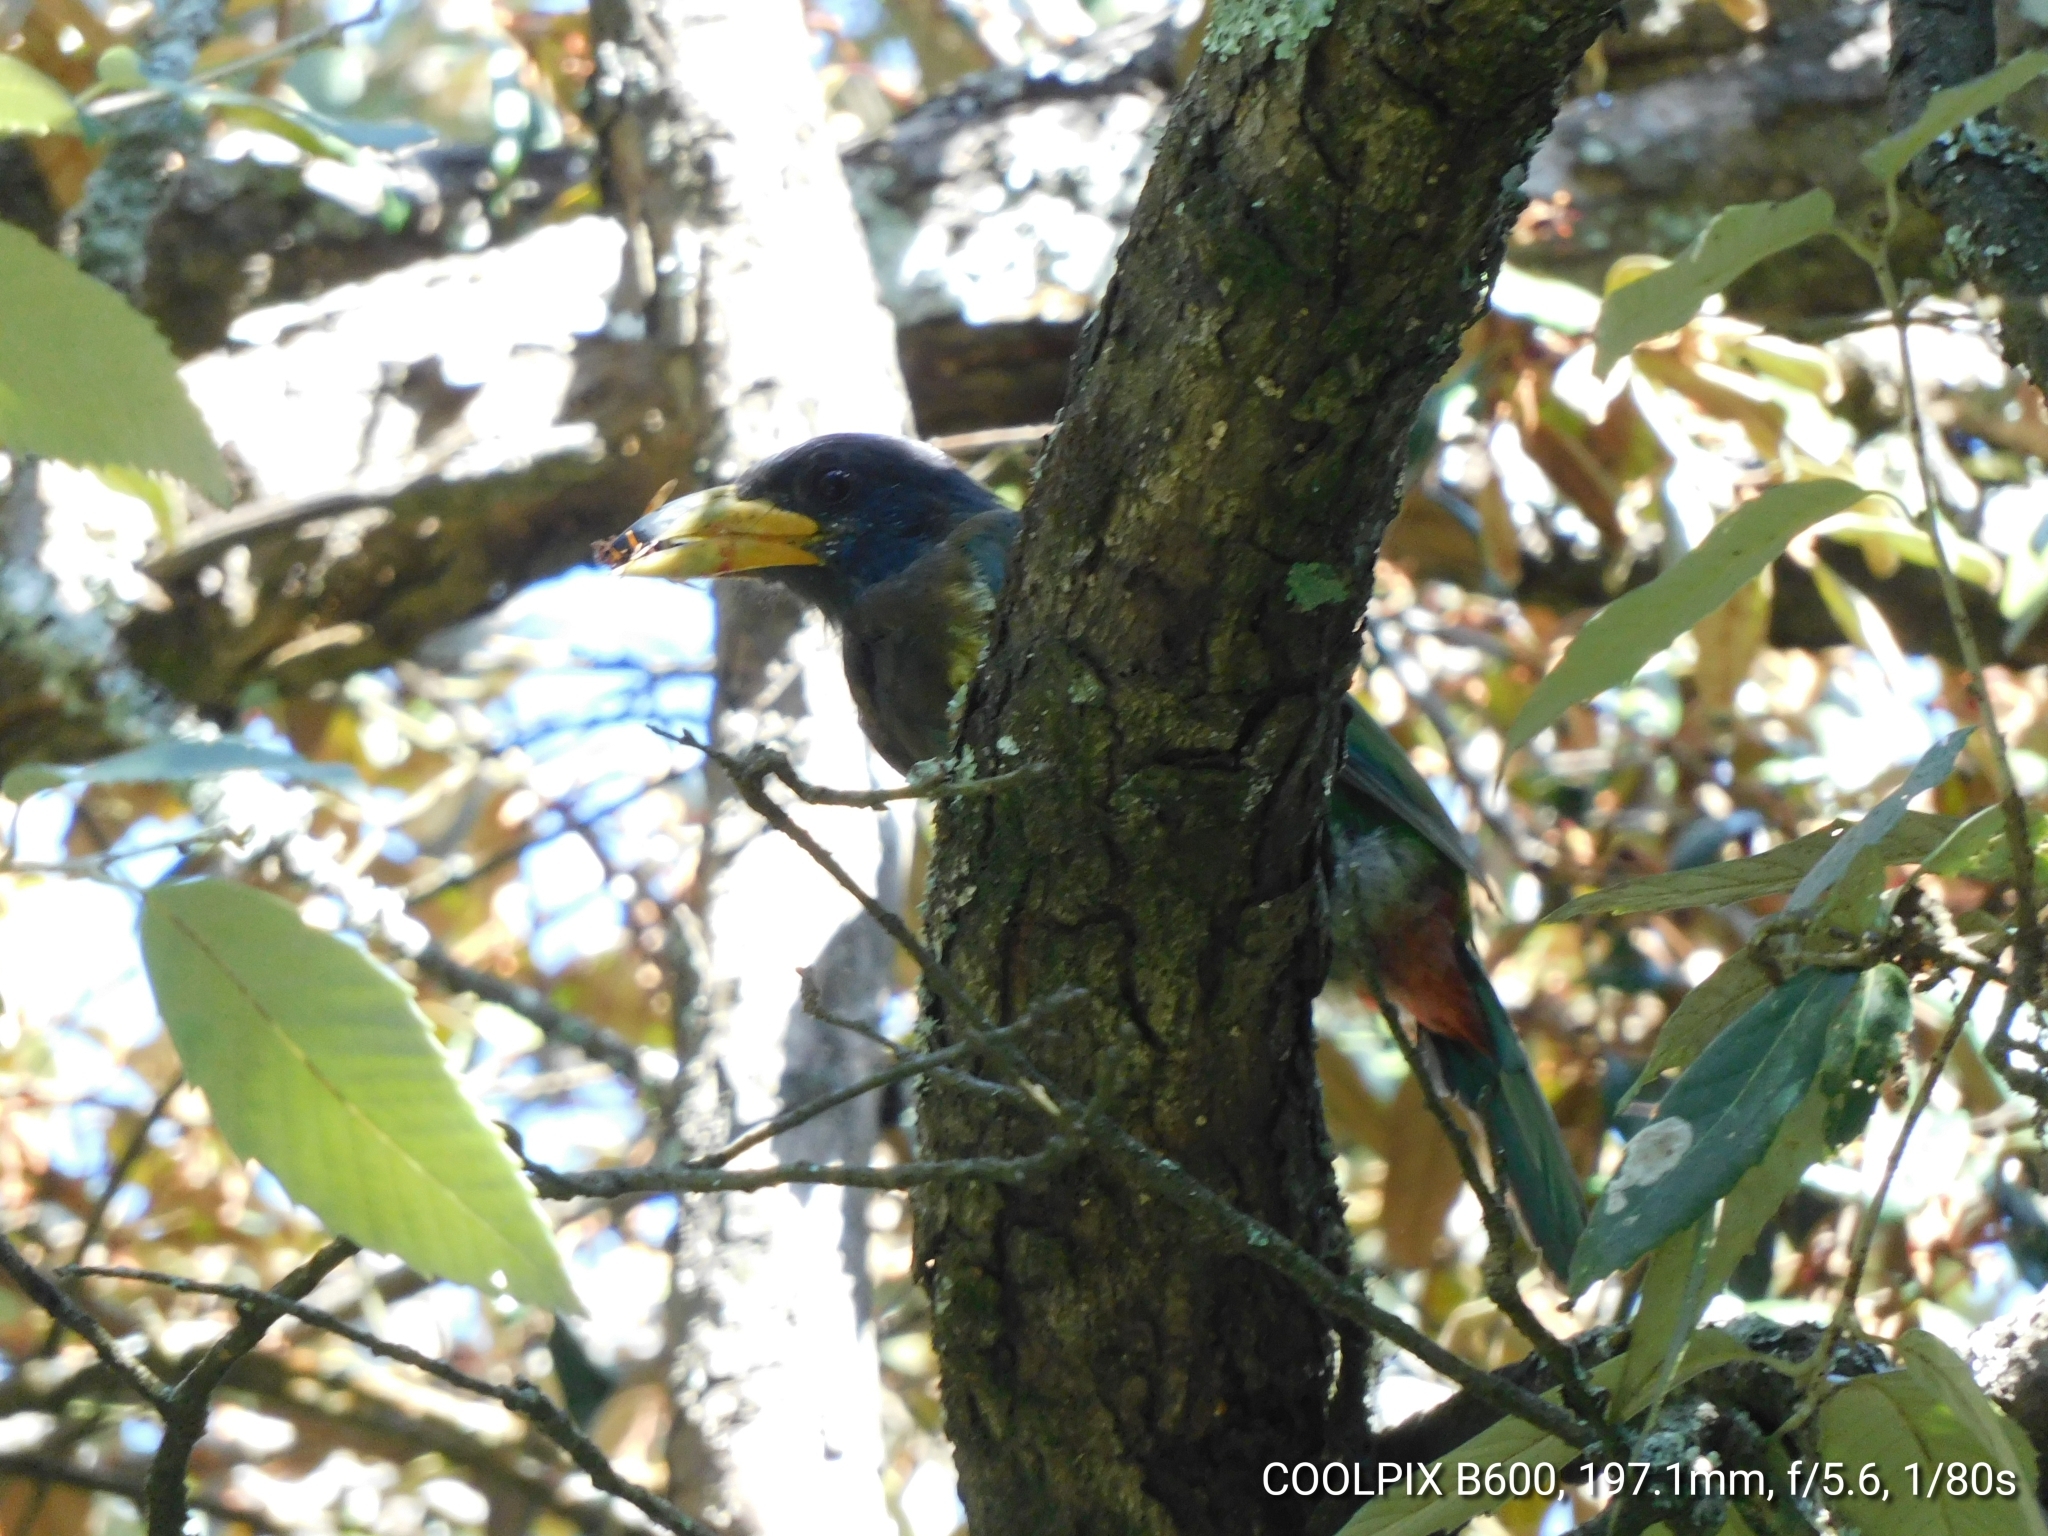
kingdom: Animalia
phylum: Chordata
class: Aves
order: Piciformes
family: Megalaimidae
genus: Psilopogon
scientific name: Psilopogon virens
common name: Great barbet
